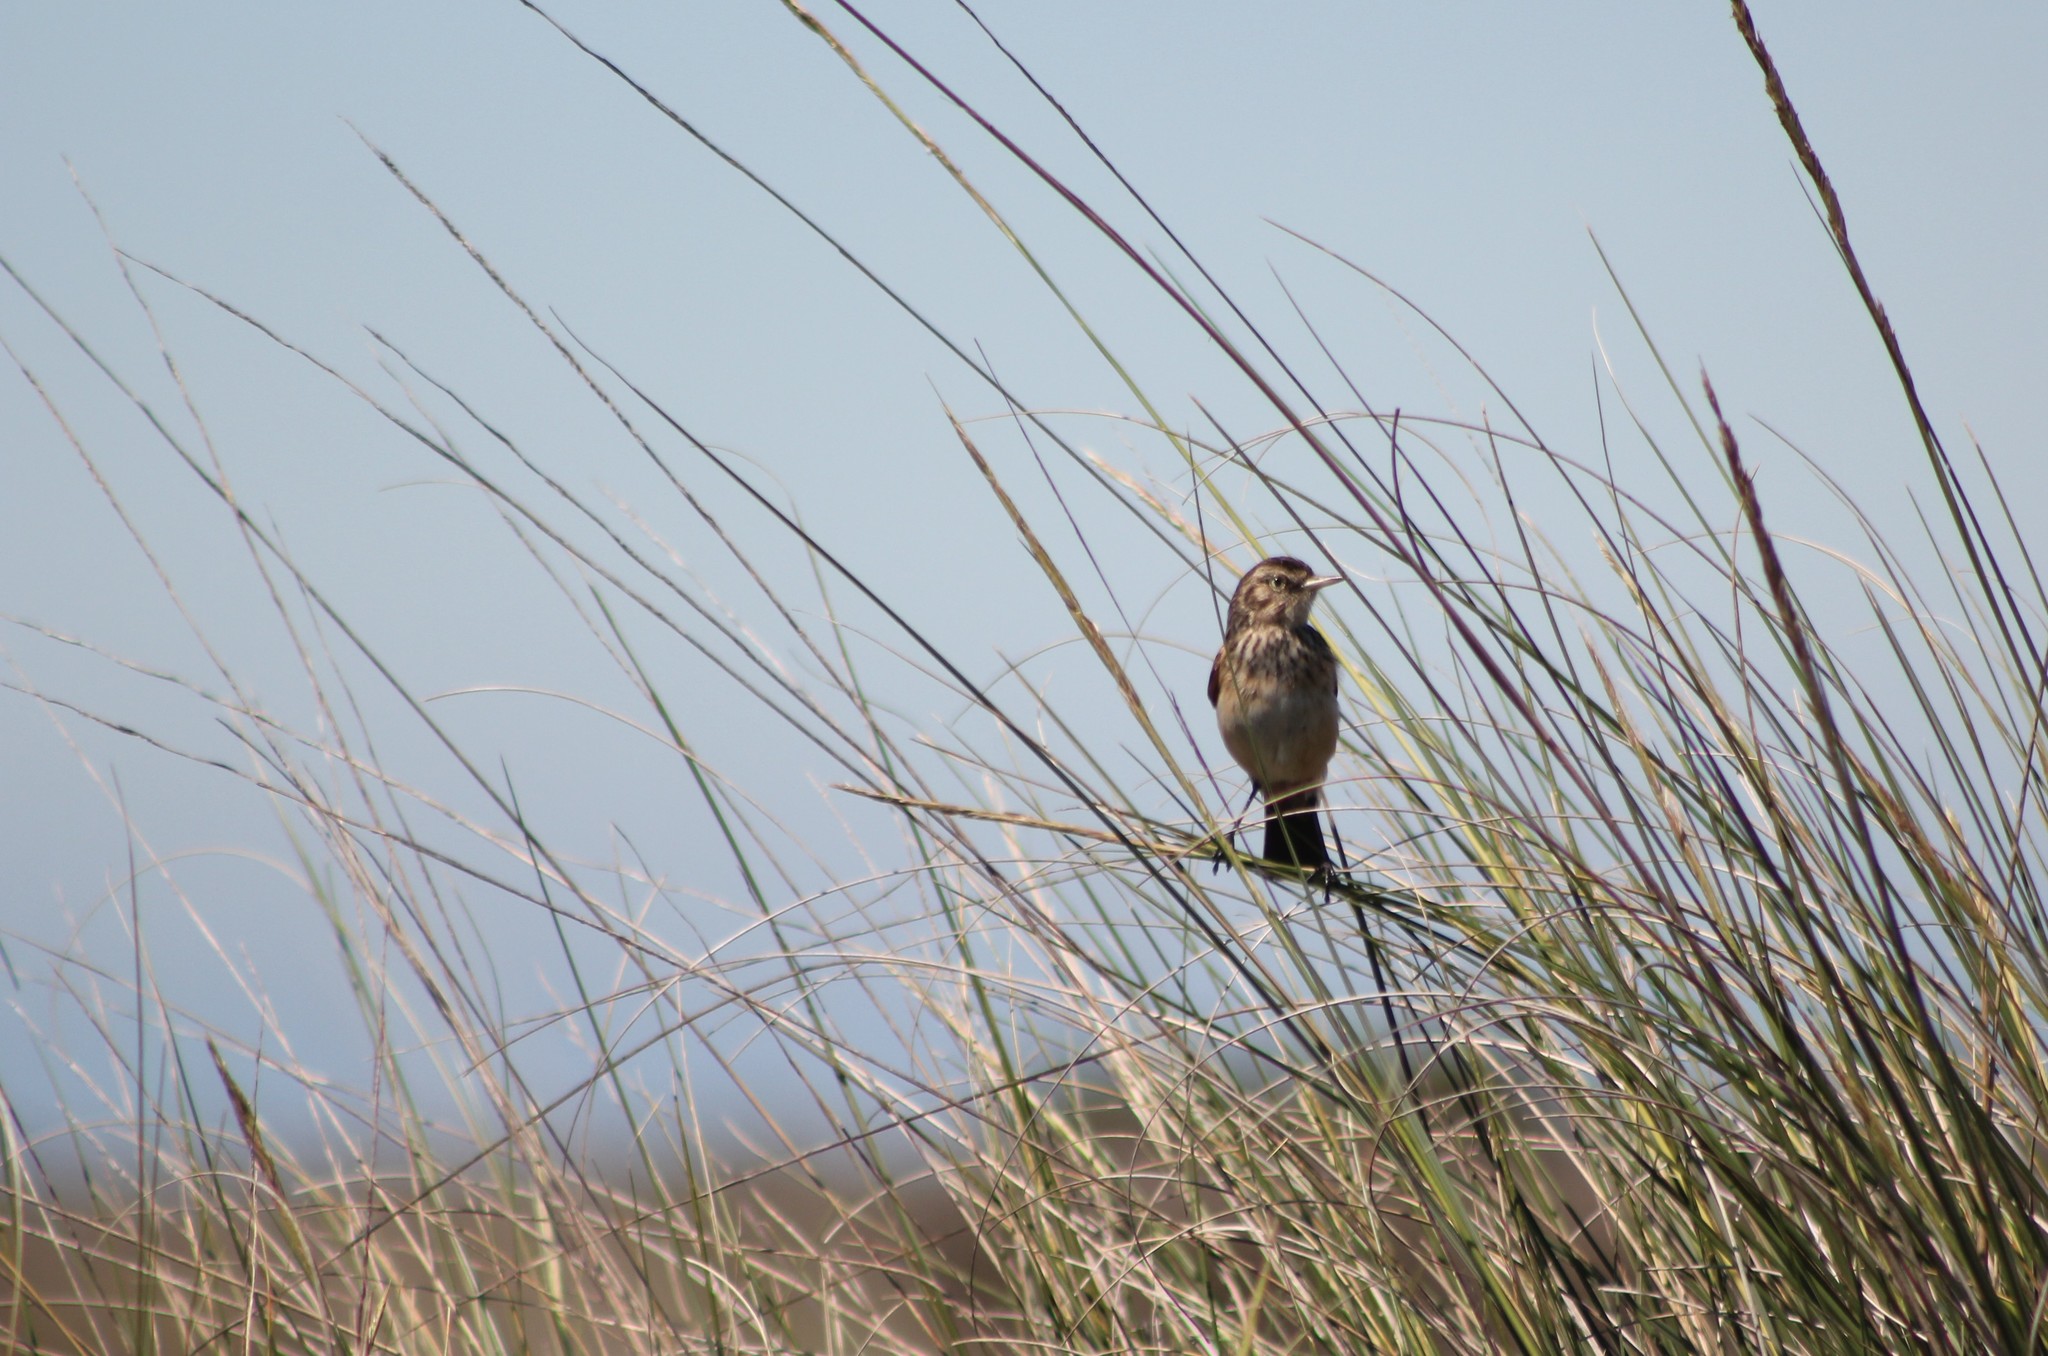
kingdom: Animalia
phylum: Chordata
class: Aves
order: Passeriformes
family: Tyrannidae
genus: Hymenops
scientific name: Hymenops perspicillatus
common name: Spectacled tyrant
